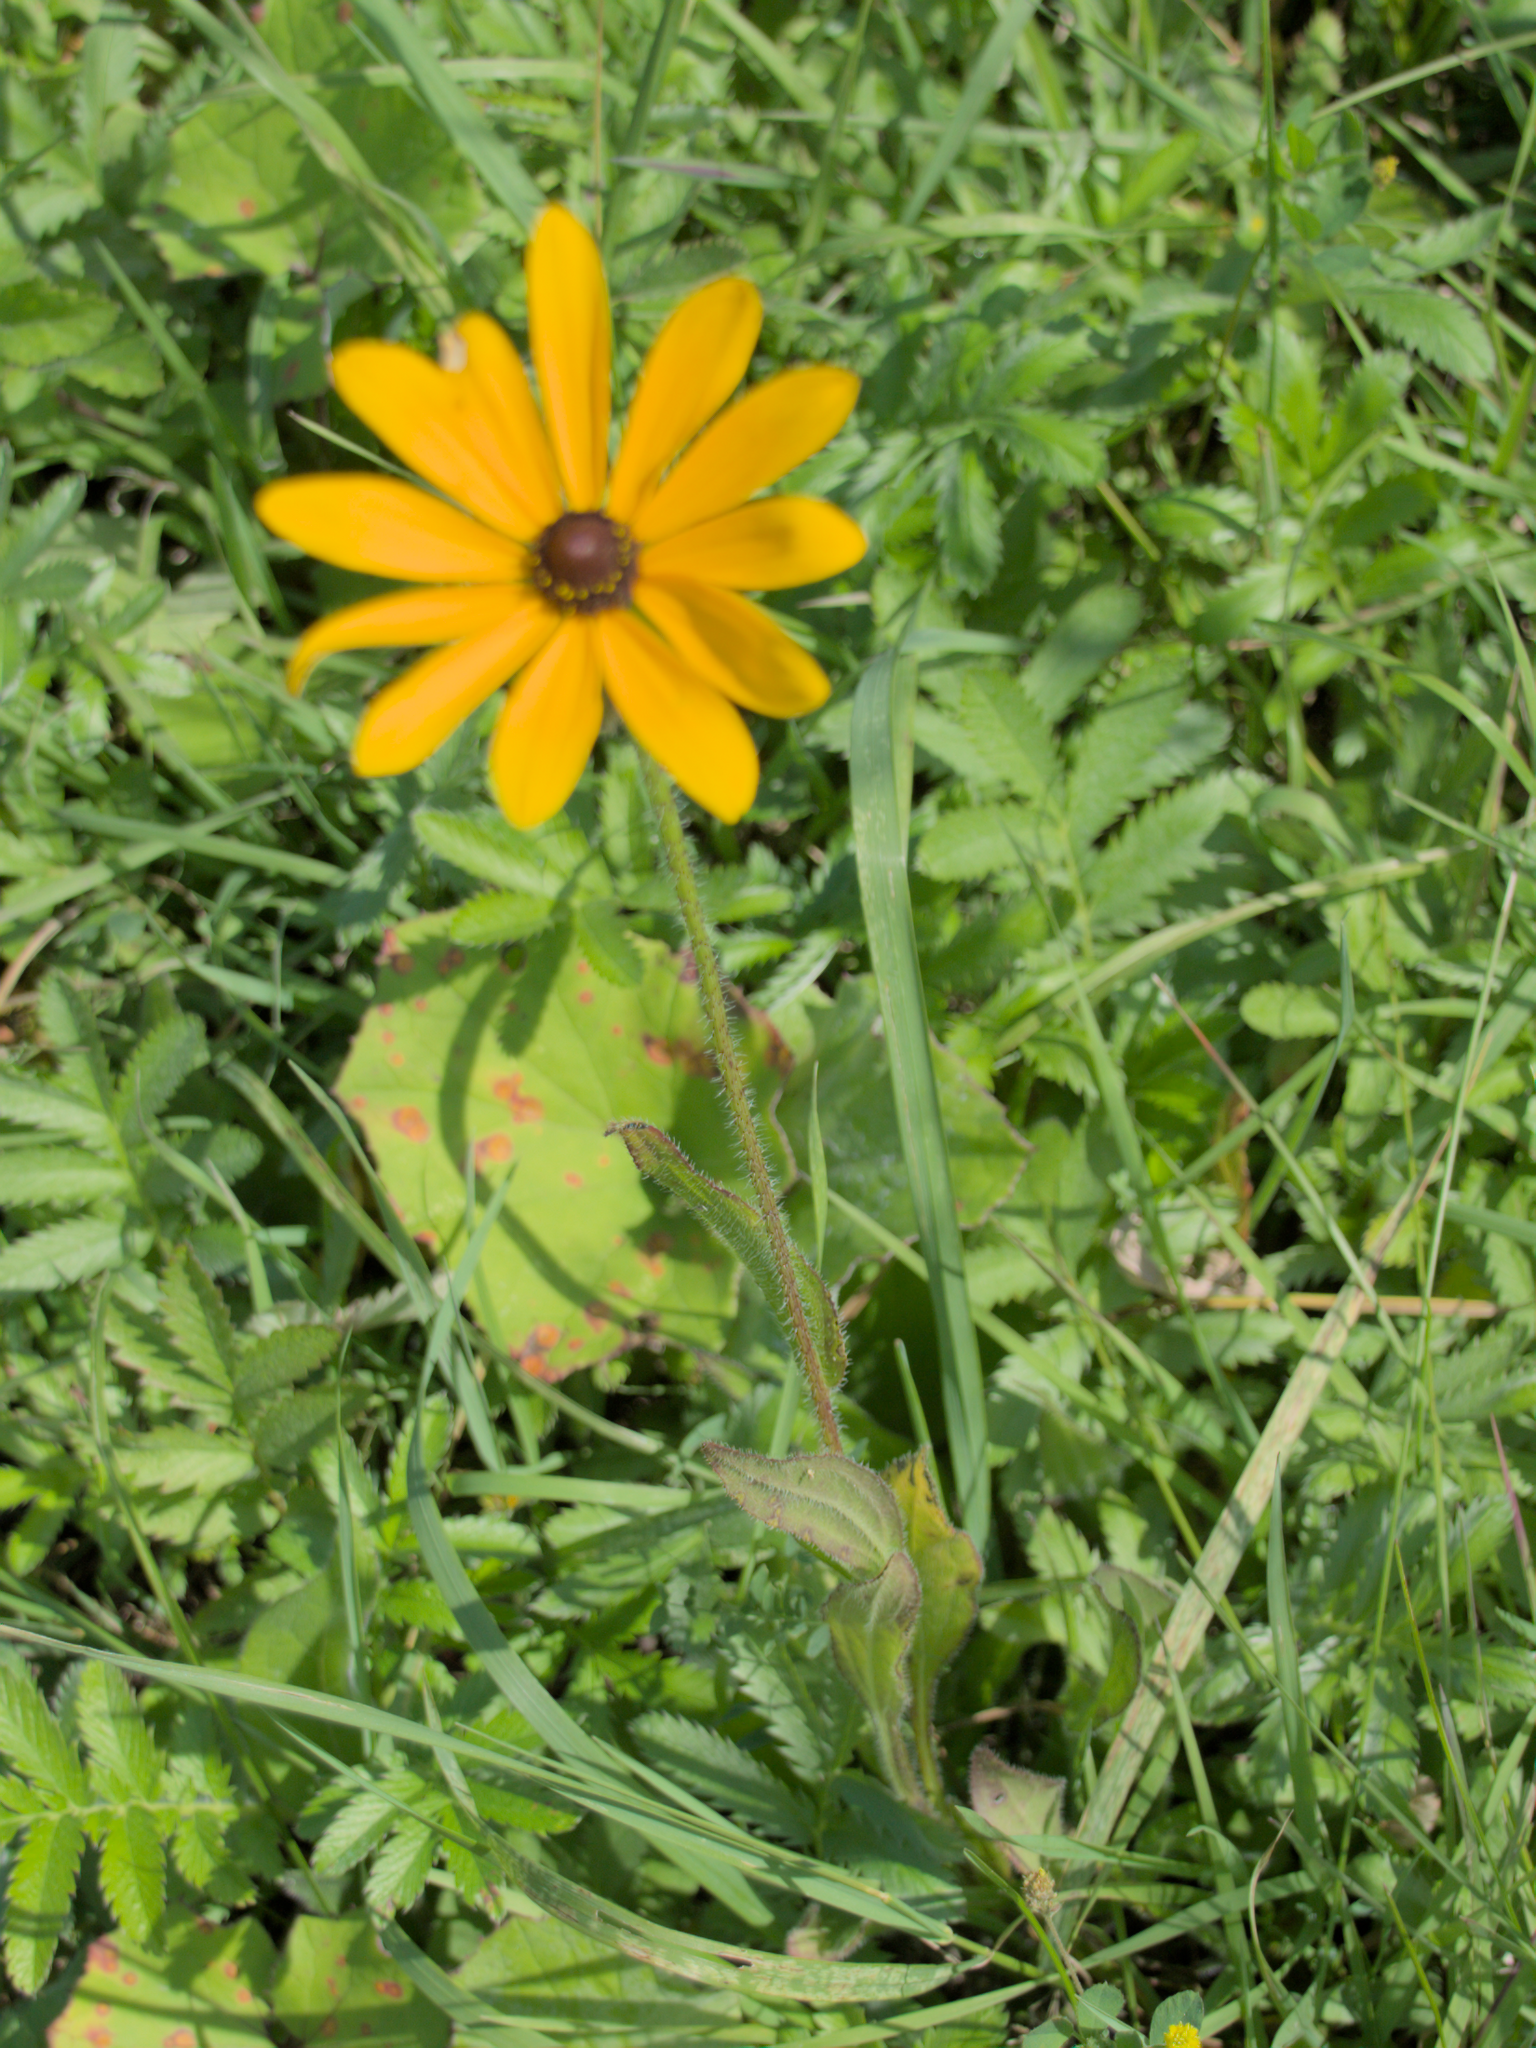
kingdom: Plantae
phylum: Tracheophyta
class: Magnoliopsida
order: Asterales
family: Asteraceae
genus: Rudbeckia
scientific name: Rudbeckia hirta
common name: Black-eyed-susan
